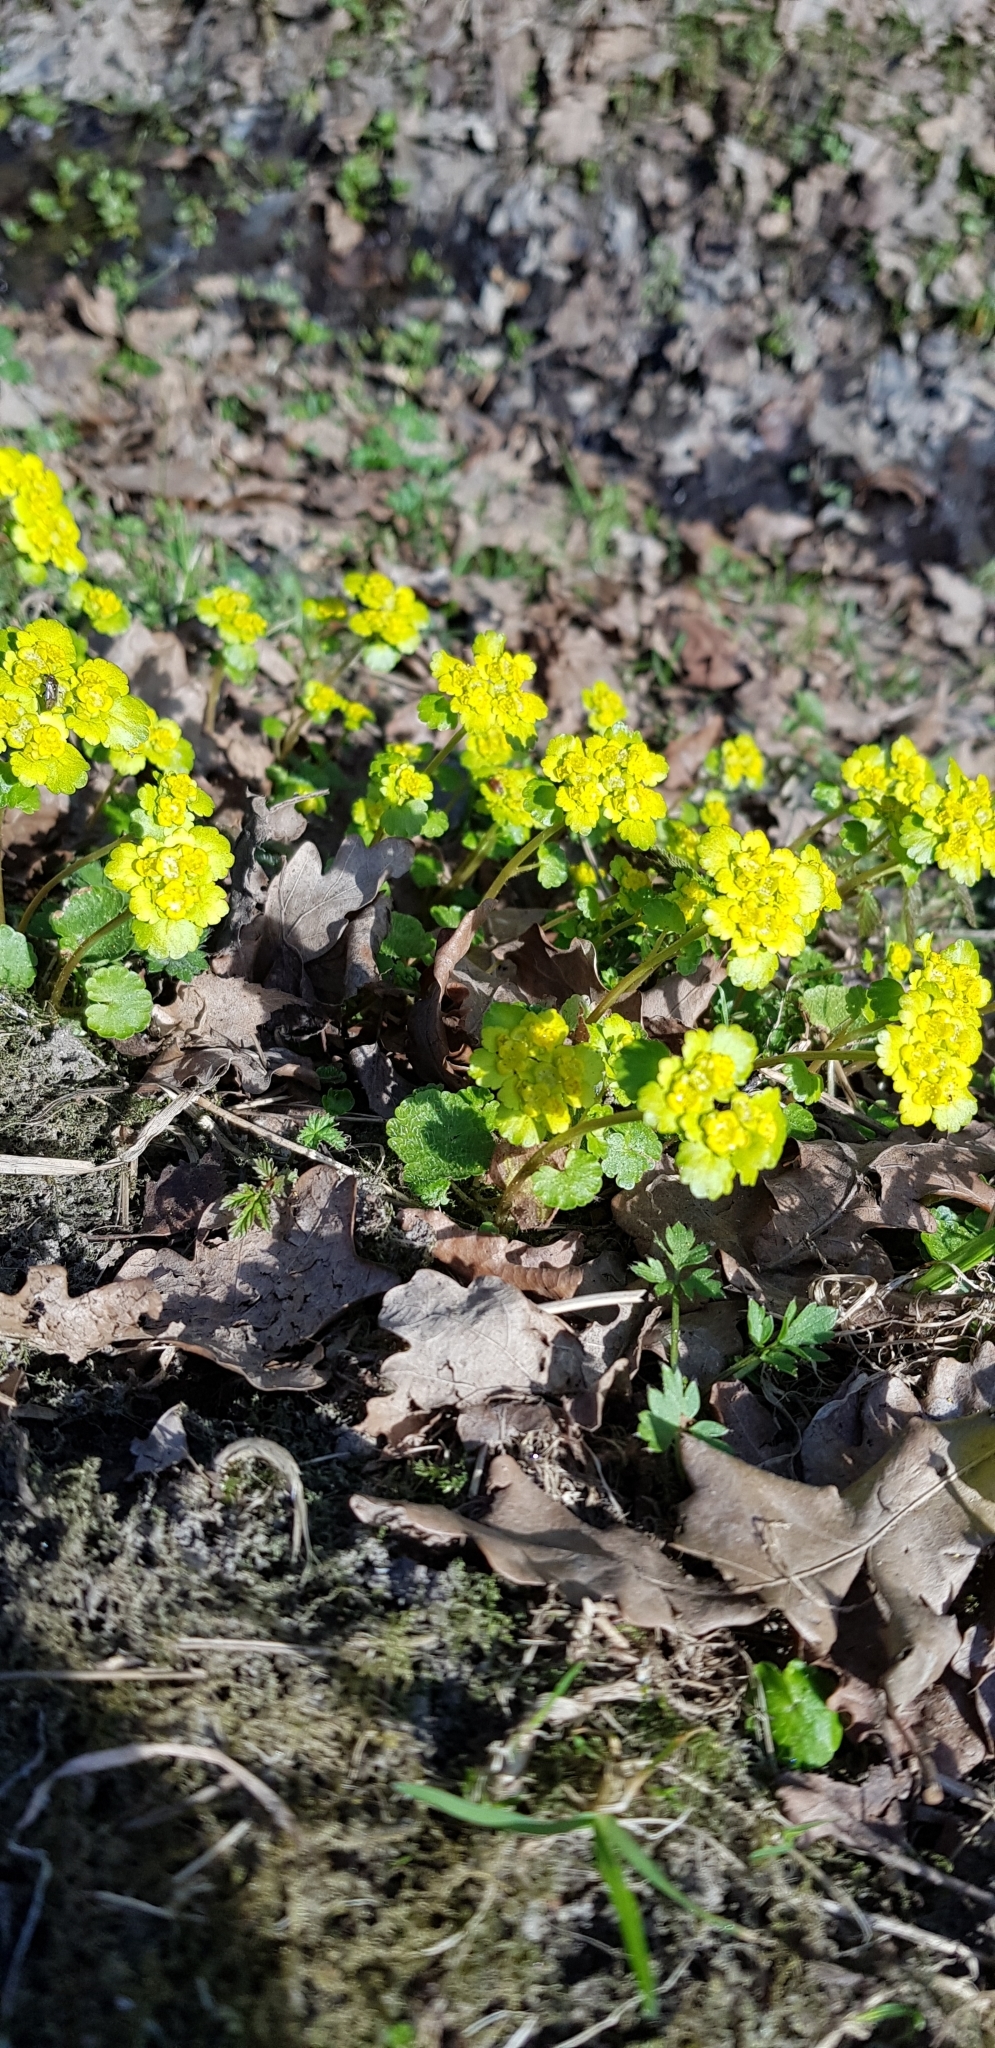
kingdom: Plantae
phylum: Tracheophyta
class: Magnoliopsida
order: Saxifragales
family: Saxifragaceae
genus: Chrysosplenium
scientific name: Chrysosplenium alternifolium
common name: Alternate-leaved golden-saxifrage
